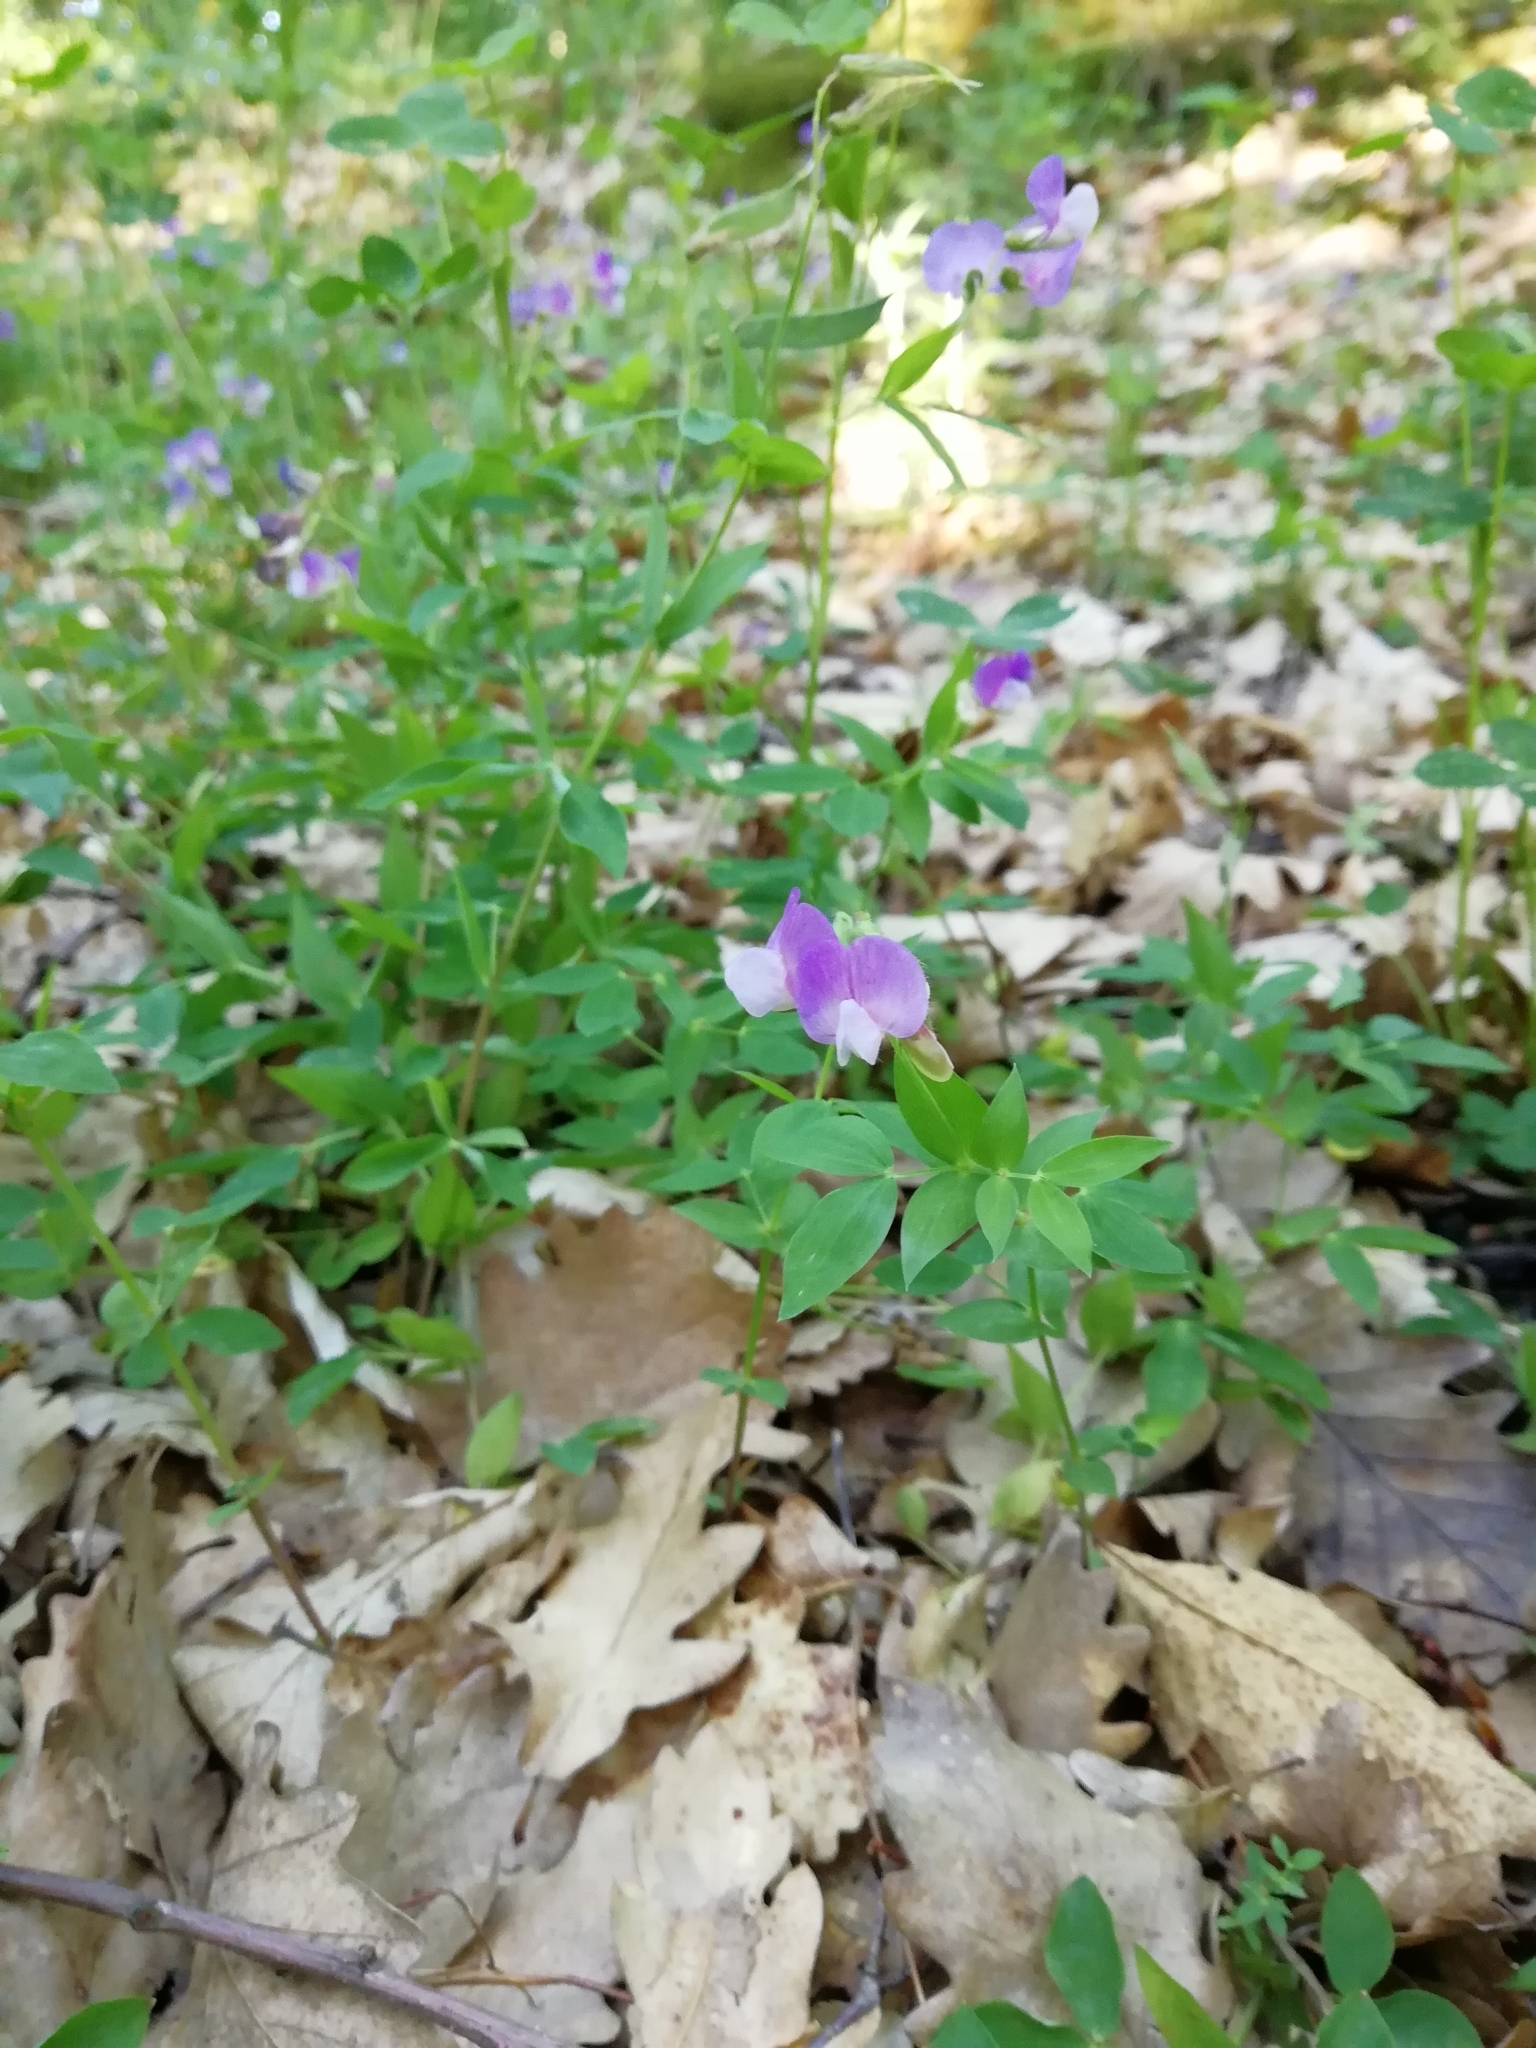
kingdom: Plantae
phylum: Tracheophyta
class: Magnoliopsida
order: Fabales
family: Fabaceae
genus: Lathyrus
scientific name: Lathyrus laxiflorus
